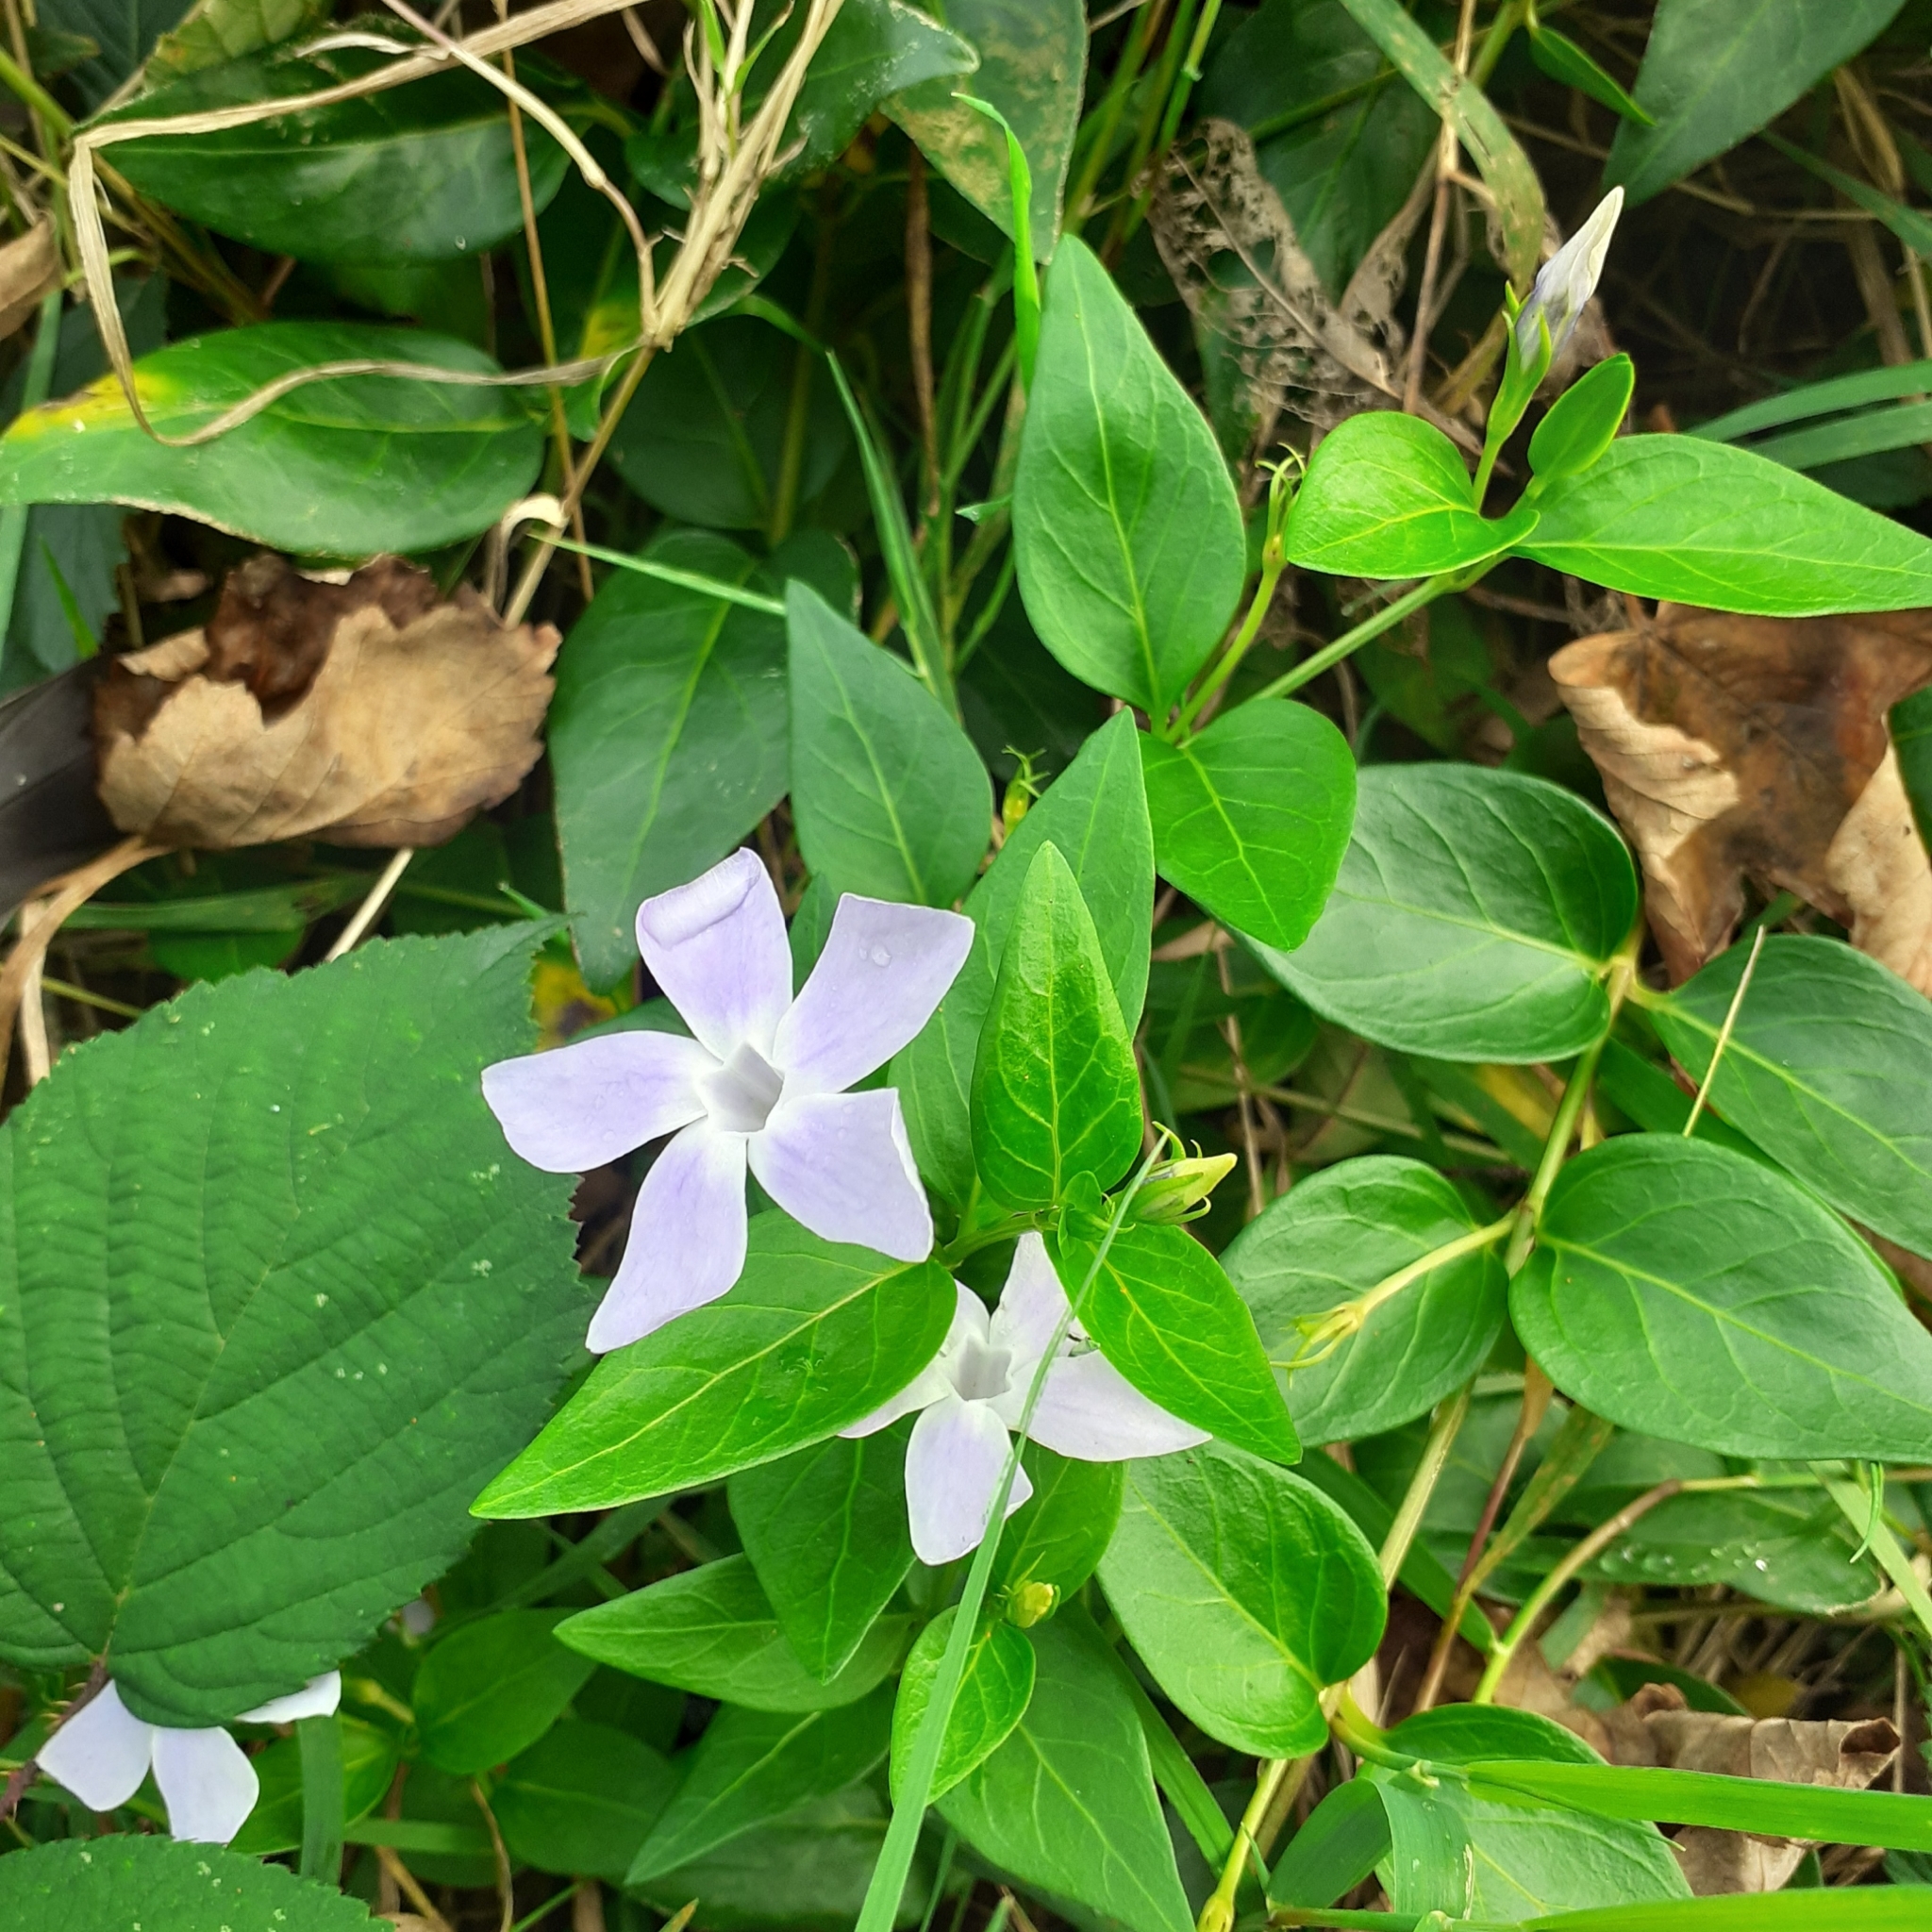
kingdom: Plantae
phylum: Tracheophyta
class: Magnoliopsida
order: Gentianales
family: Apocynaceae
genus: Vinca
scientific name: Vinca difformis
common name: Intermediate periwinkle
